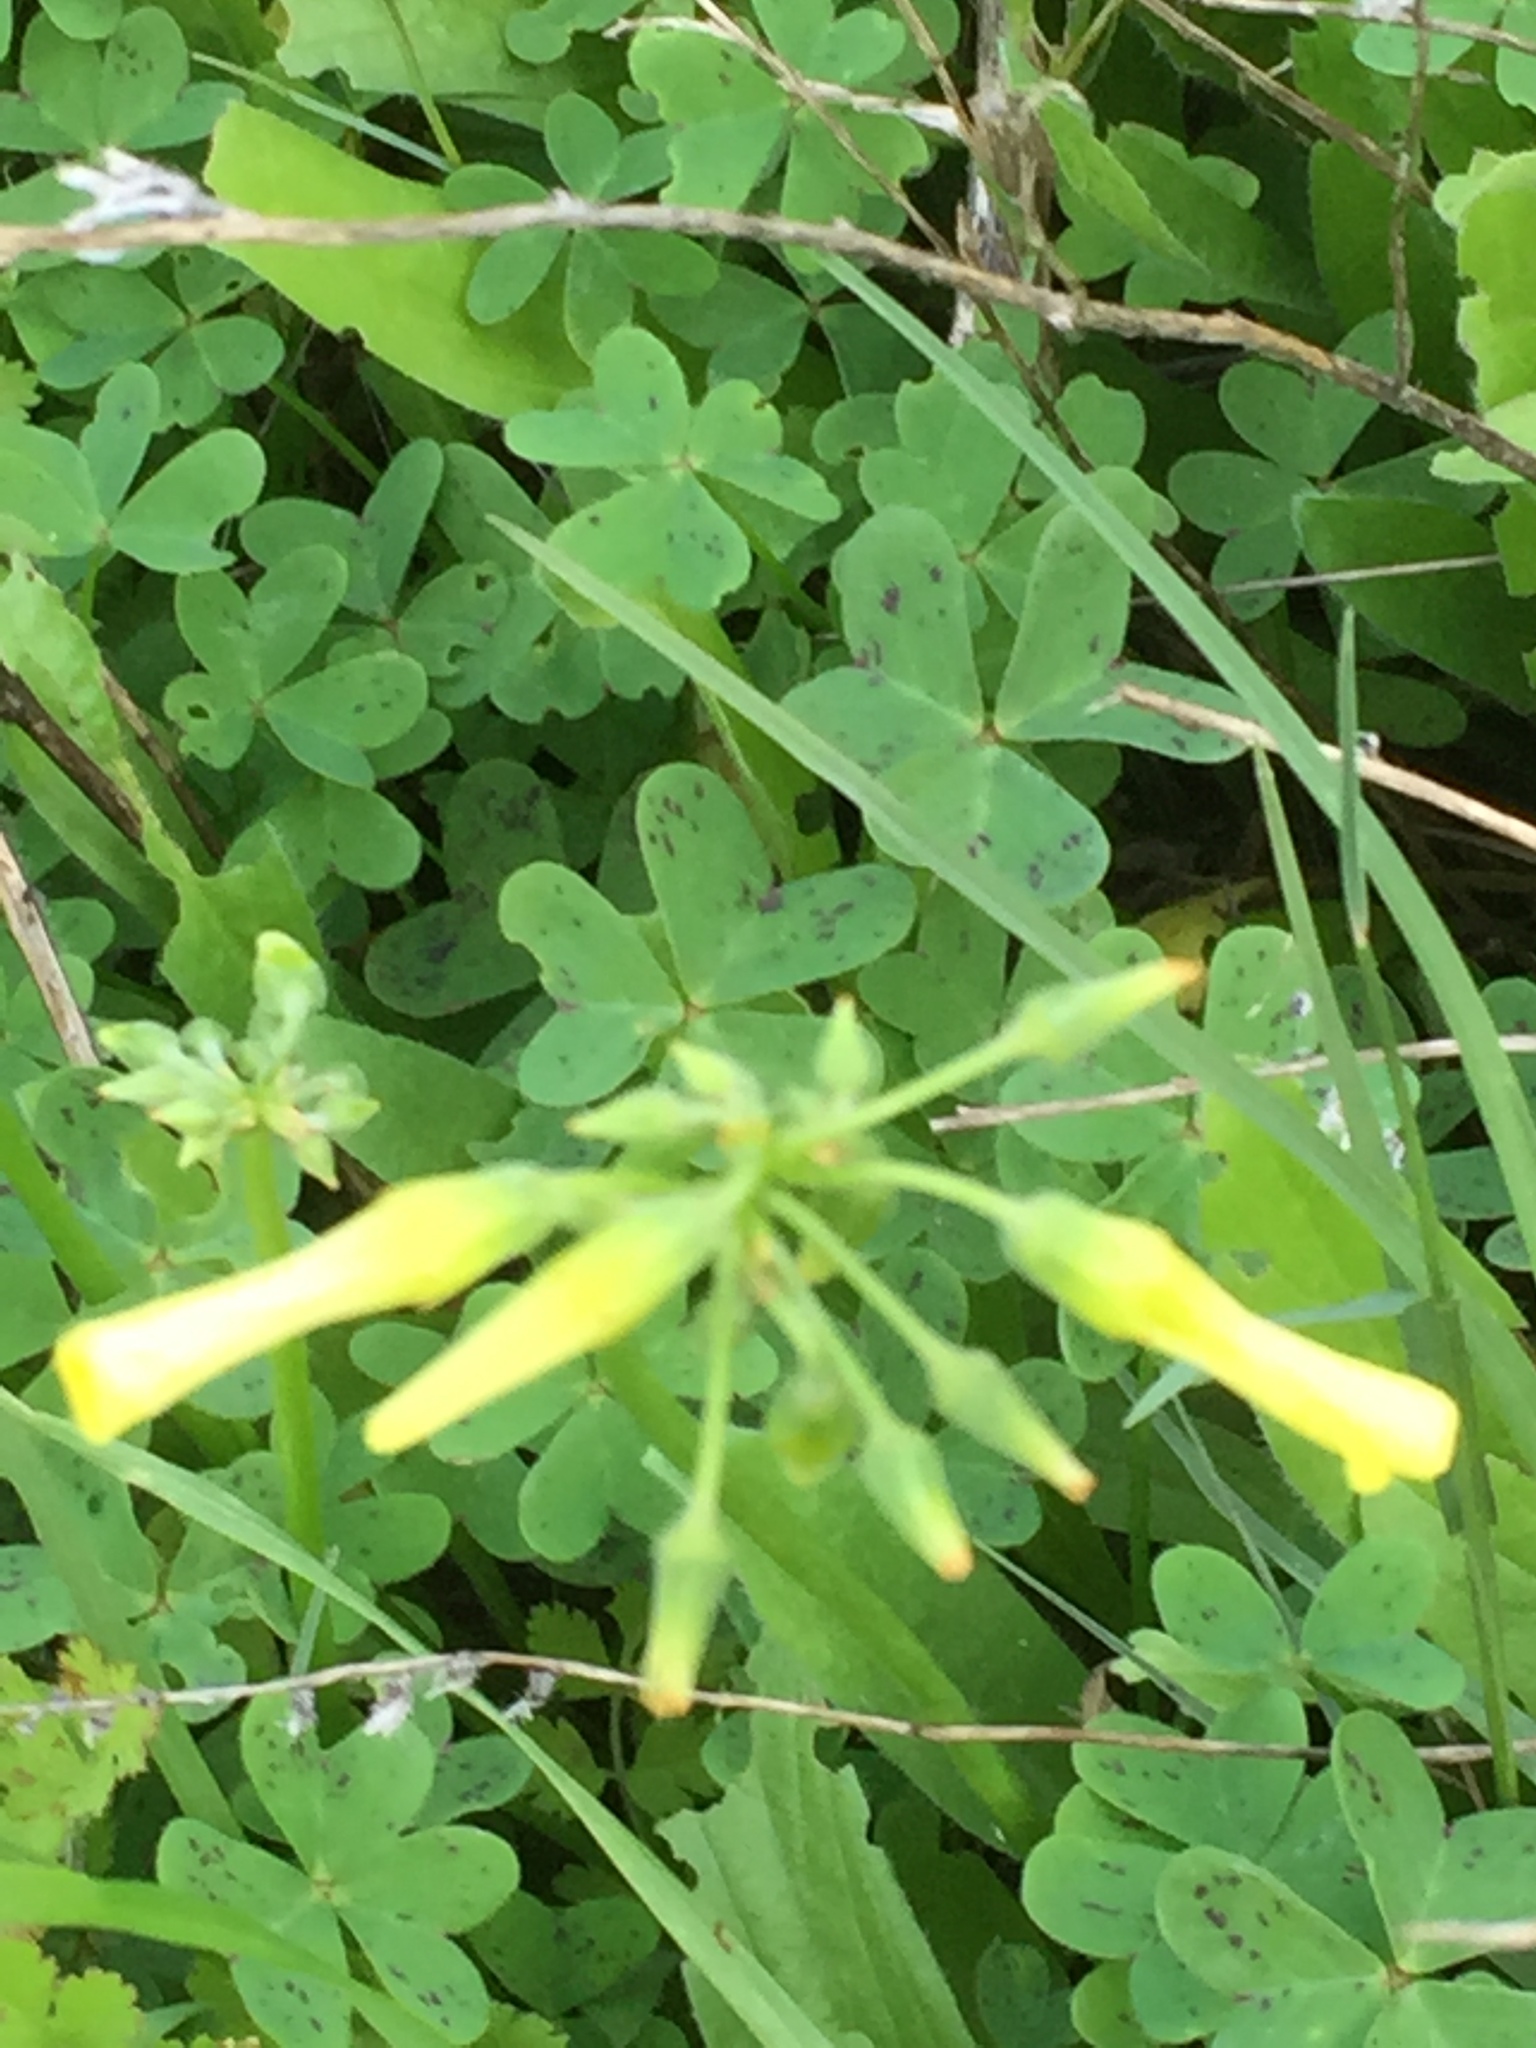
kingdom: Plantae
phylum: Tracheophyta
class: Magnoliopsida
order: Oxalidales
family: Oxalidaceae
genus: Oxalis
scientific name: Oxalis pes-caprae
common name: Bermuda-buttercup
